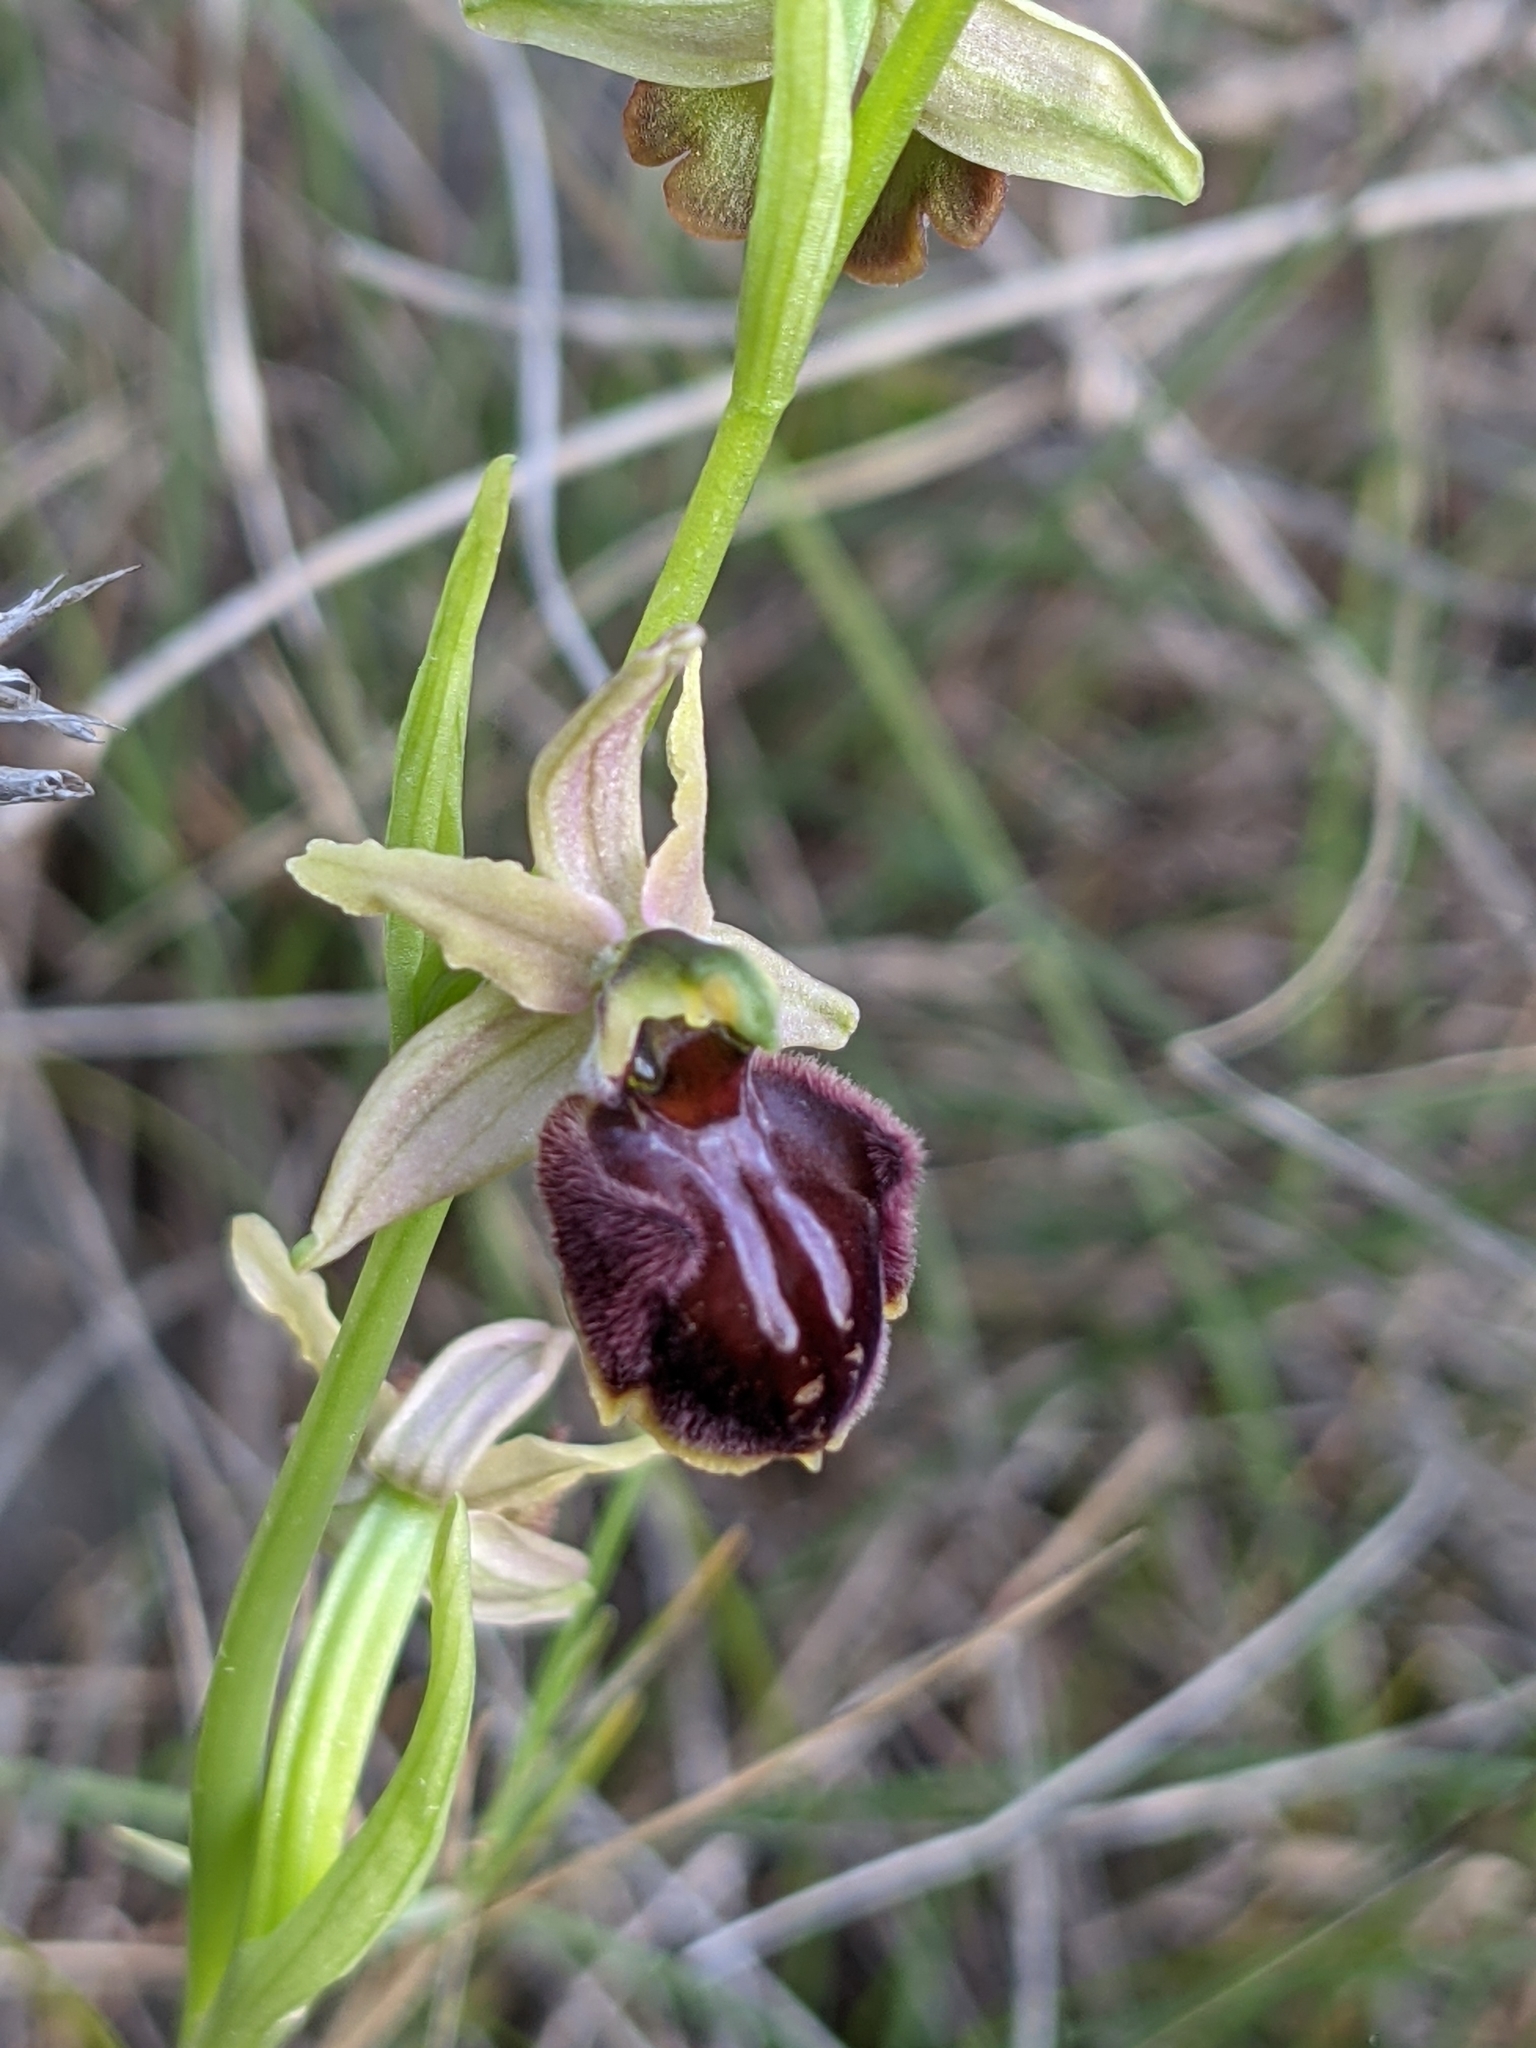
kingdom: Plantae
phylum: Tracheophyta
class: Liliopsida
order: Asparagales
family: Orchidaceae
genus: Ophrys
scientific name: Ophrys sphegodes
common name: Early spider-orchid
